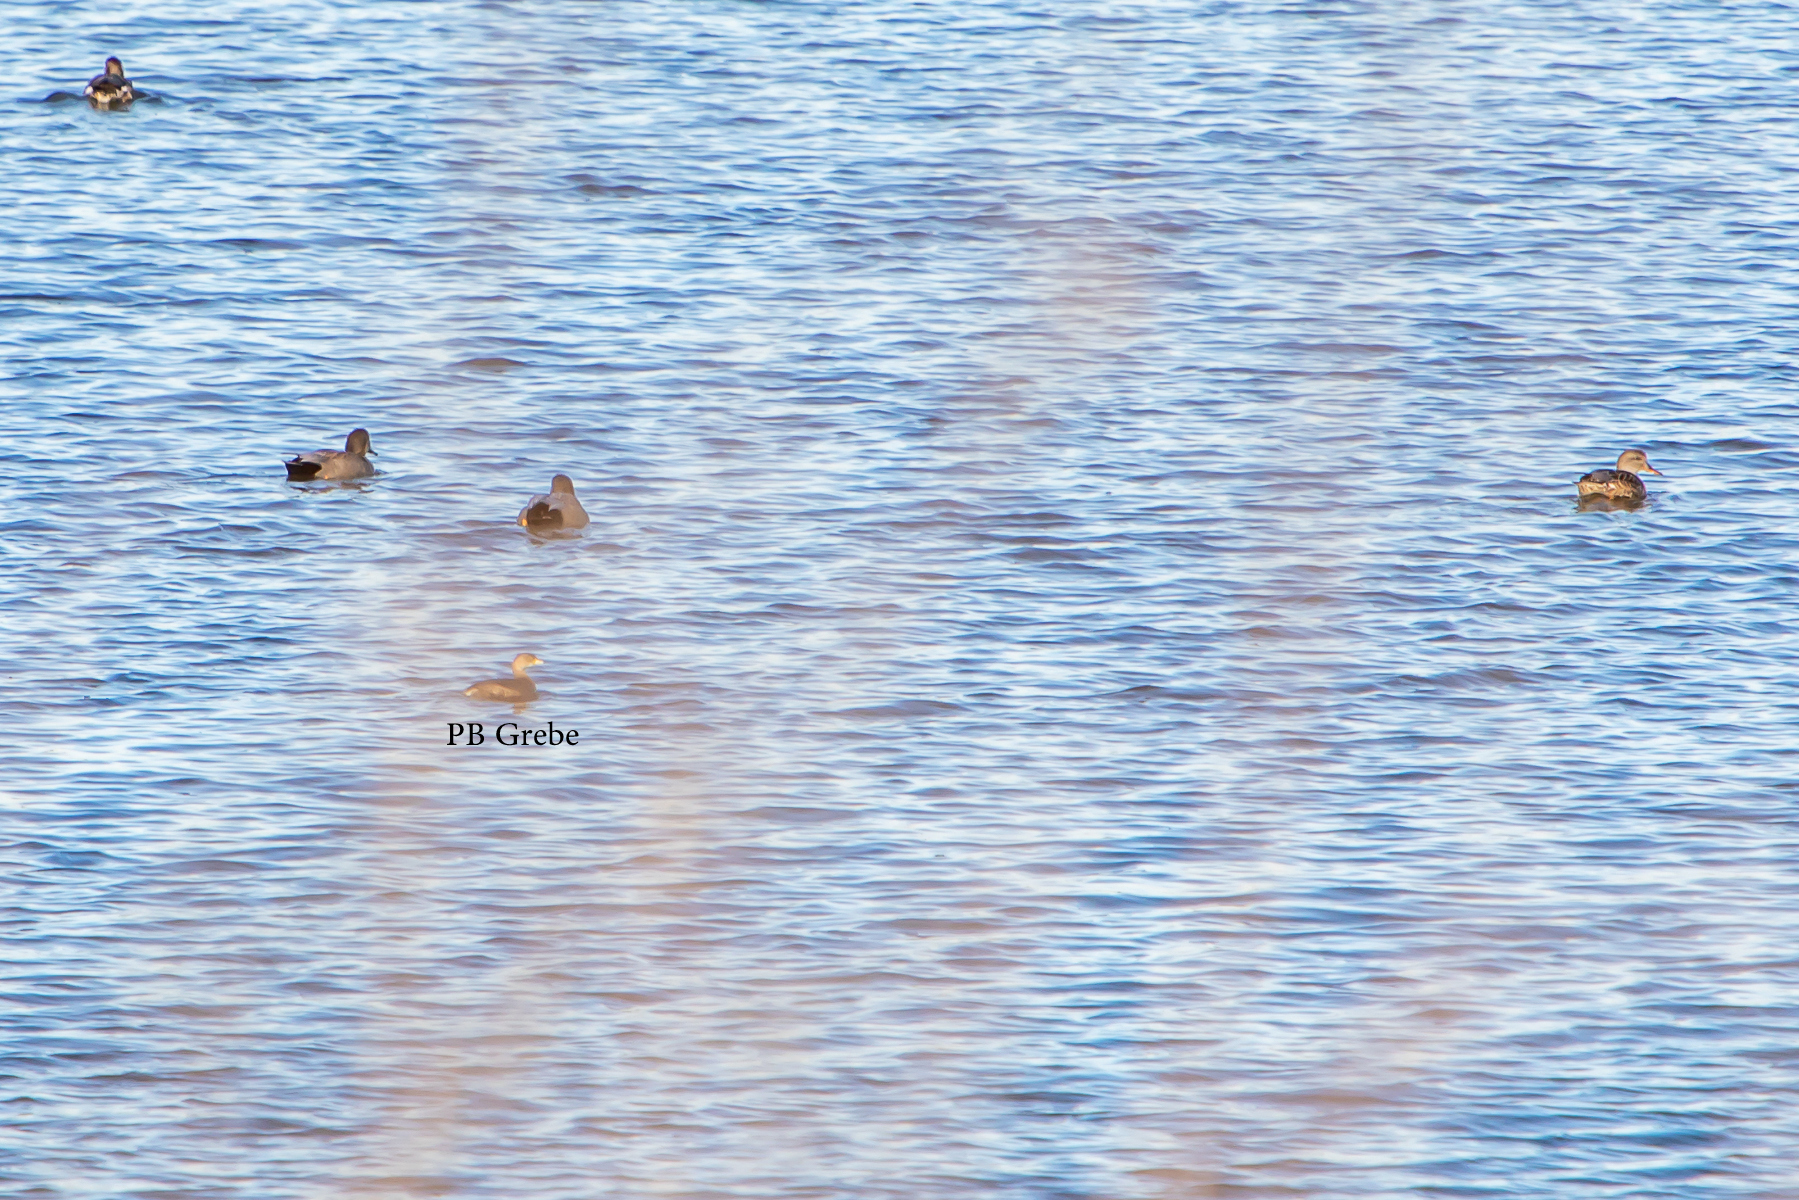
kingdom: Animalia
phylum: Chordata
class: Aves
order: Podicipediformes
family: Podicipedidae
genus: Podilymbus
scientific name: Podilymbus podiceps
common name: Pied-billed grebe
